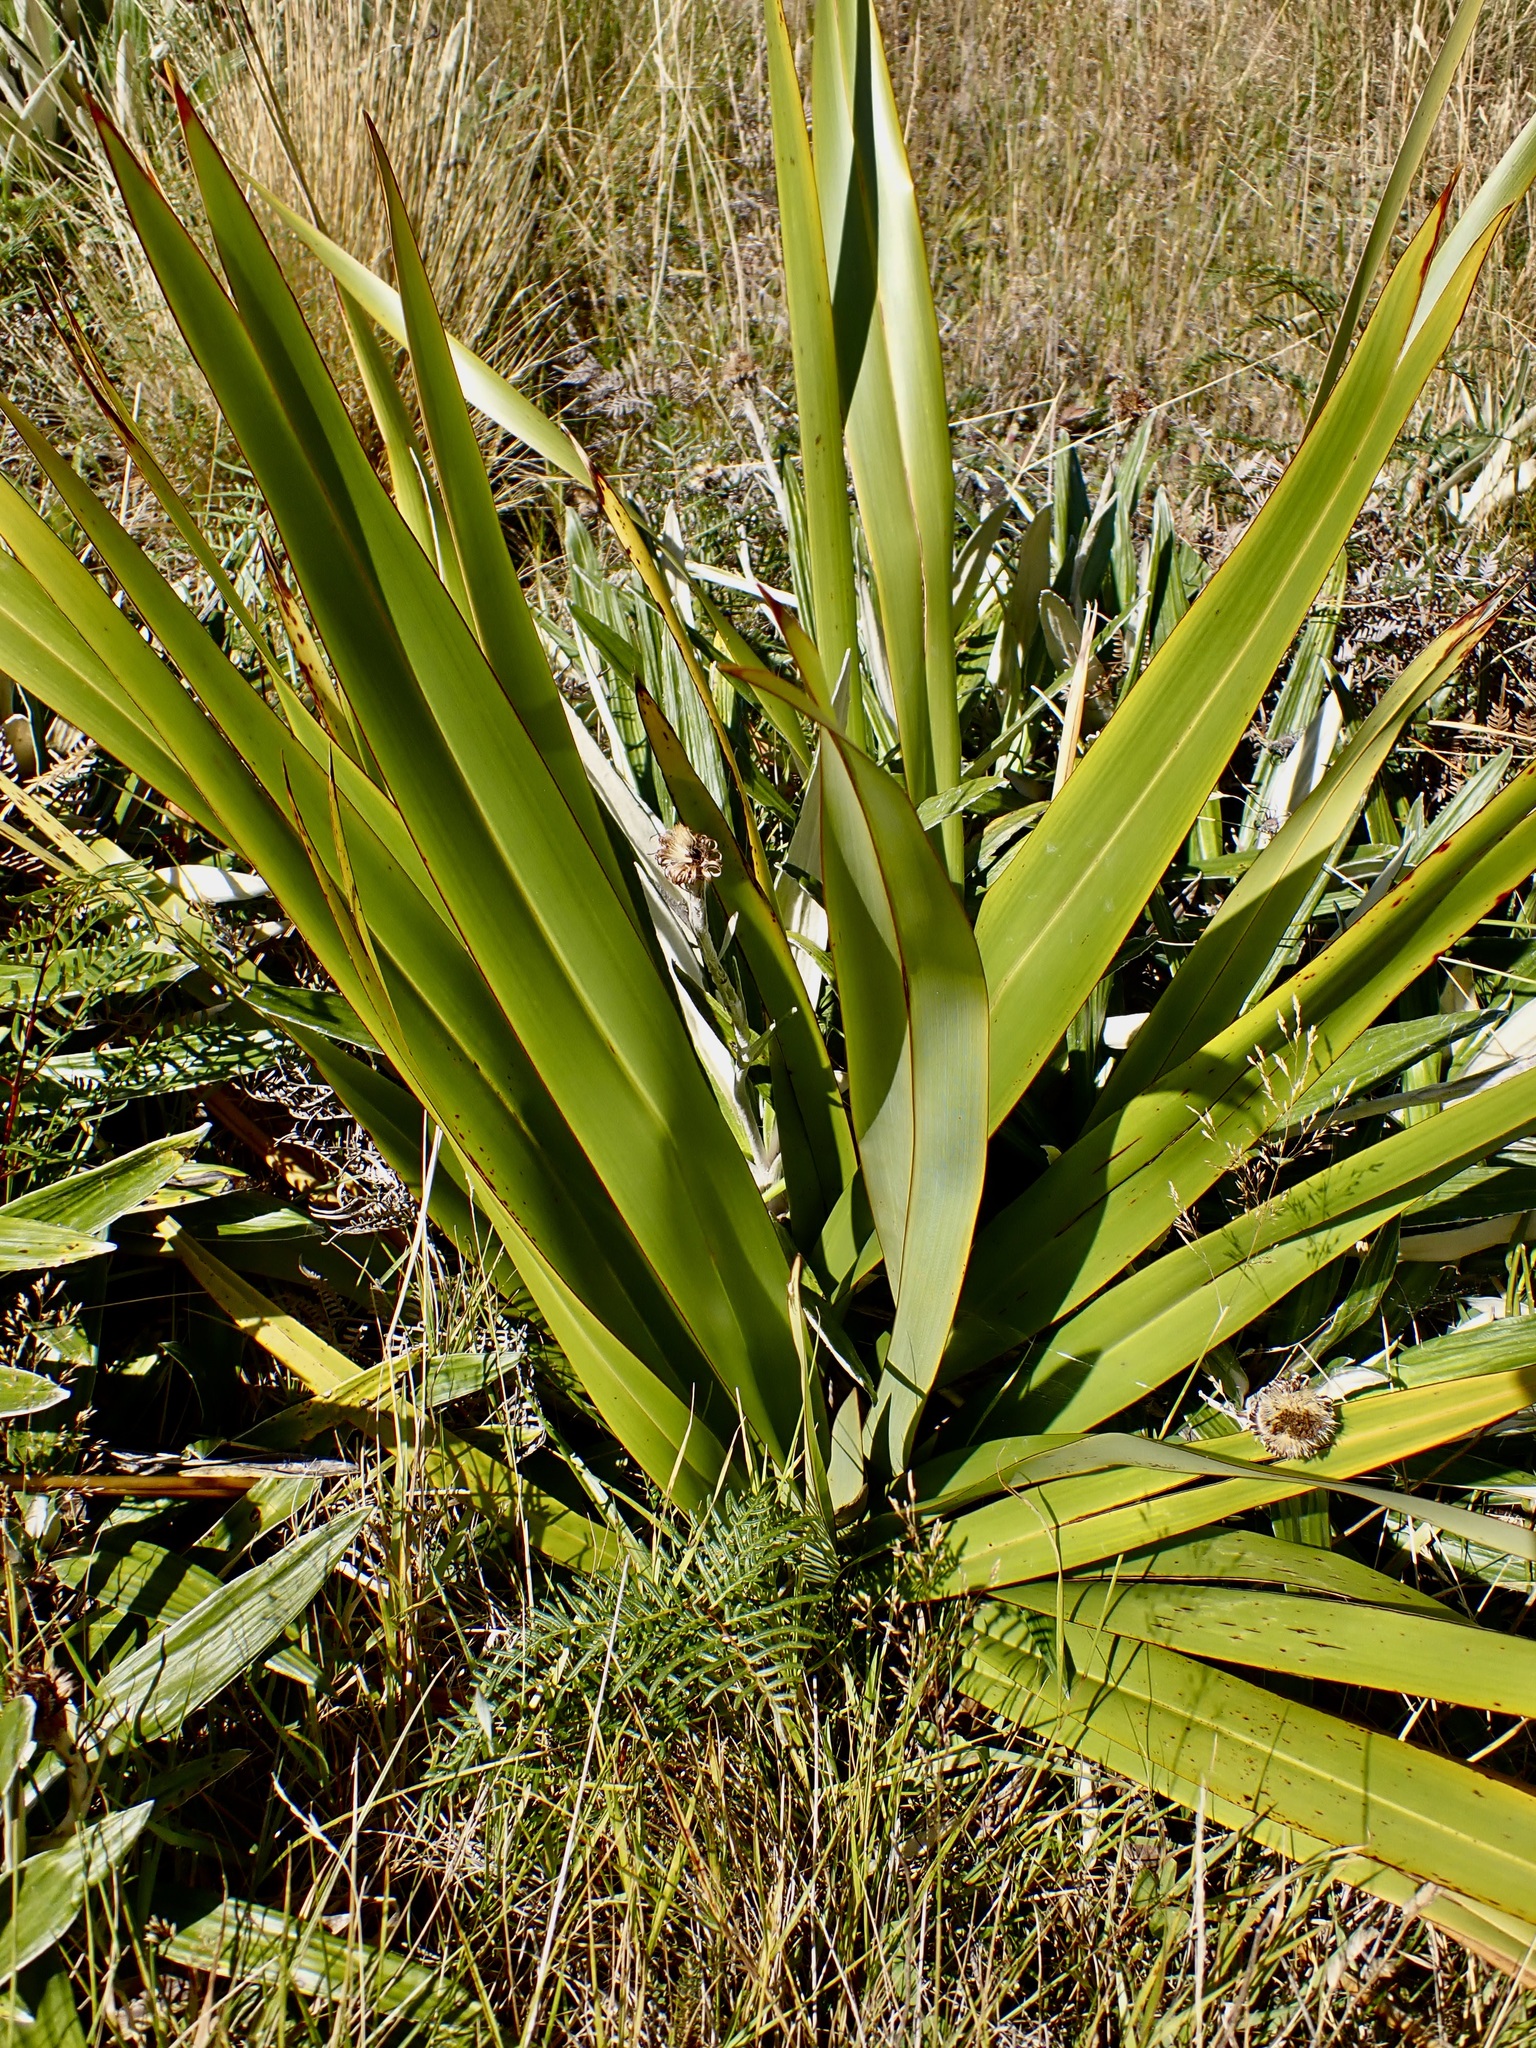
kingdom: Plantae
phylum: Tracheophyta
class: Liliopsida
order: Asparagales
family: Asphodelaceae
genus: Phormium
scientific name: Phormium colensoi
